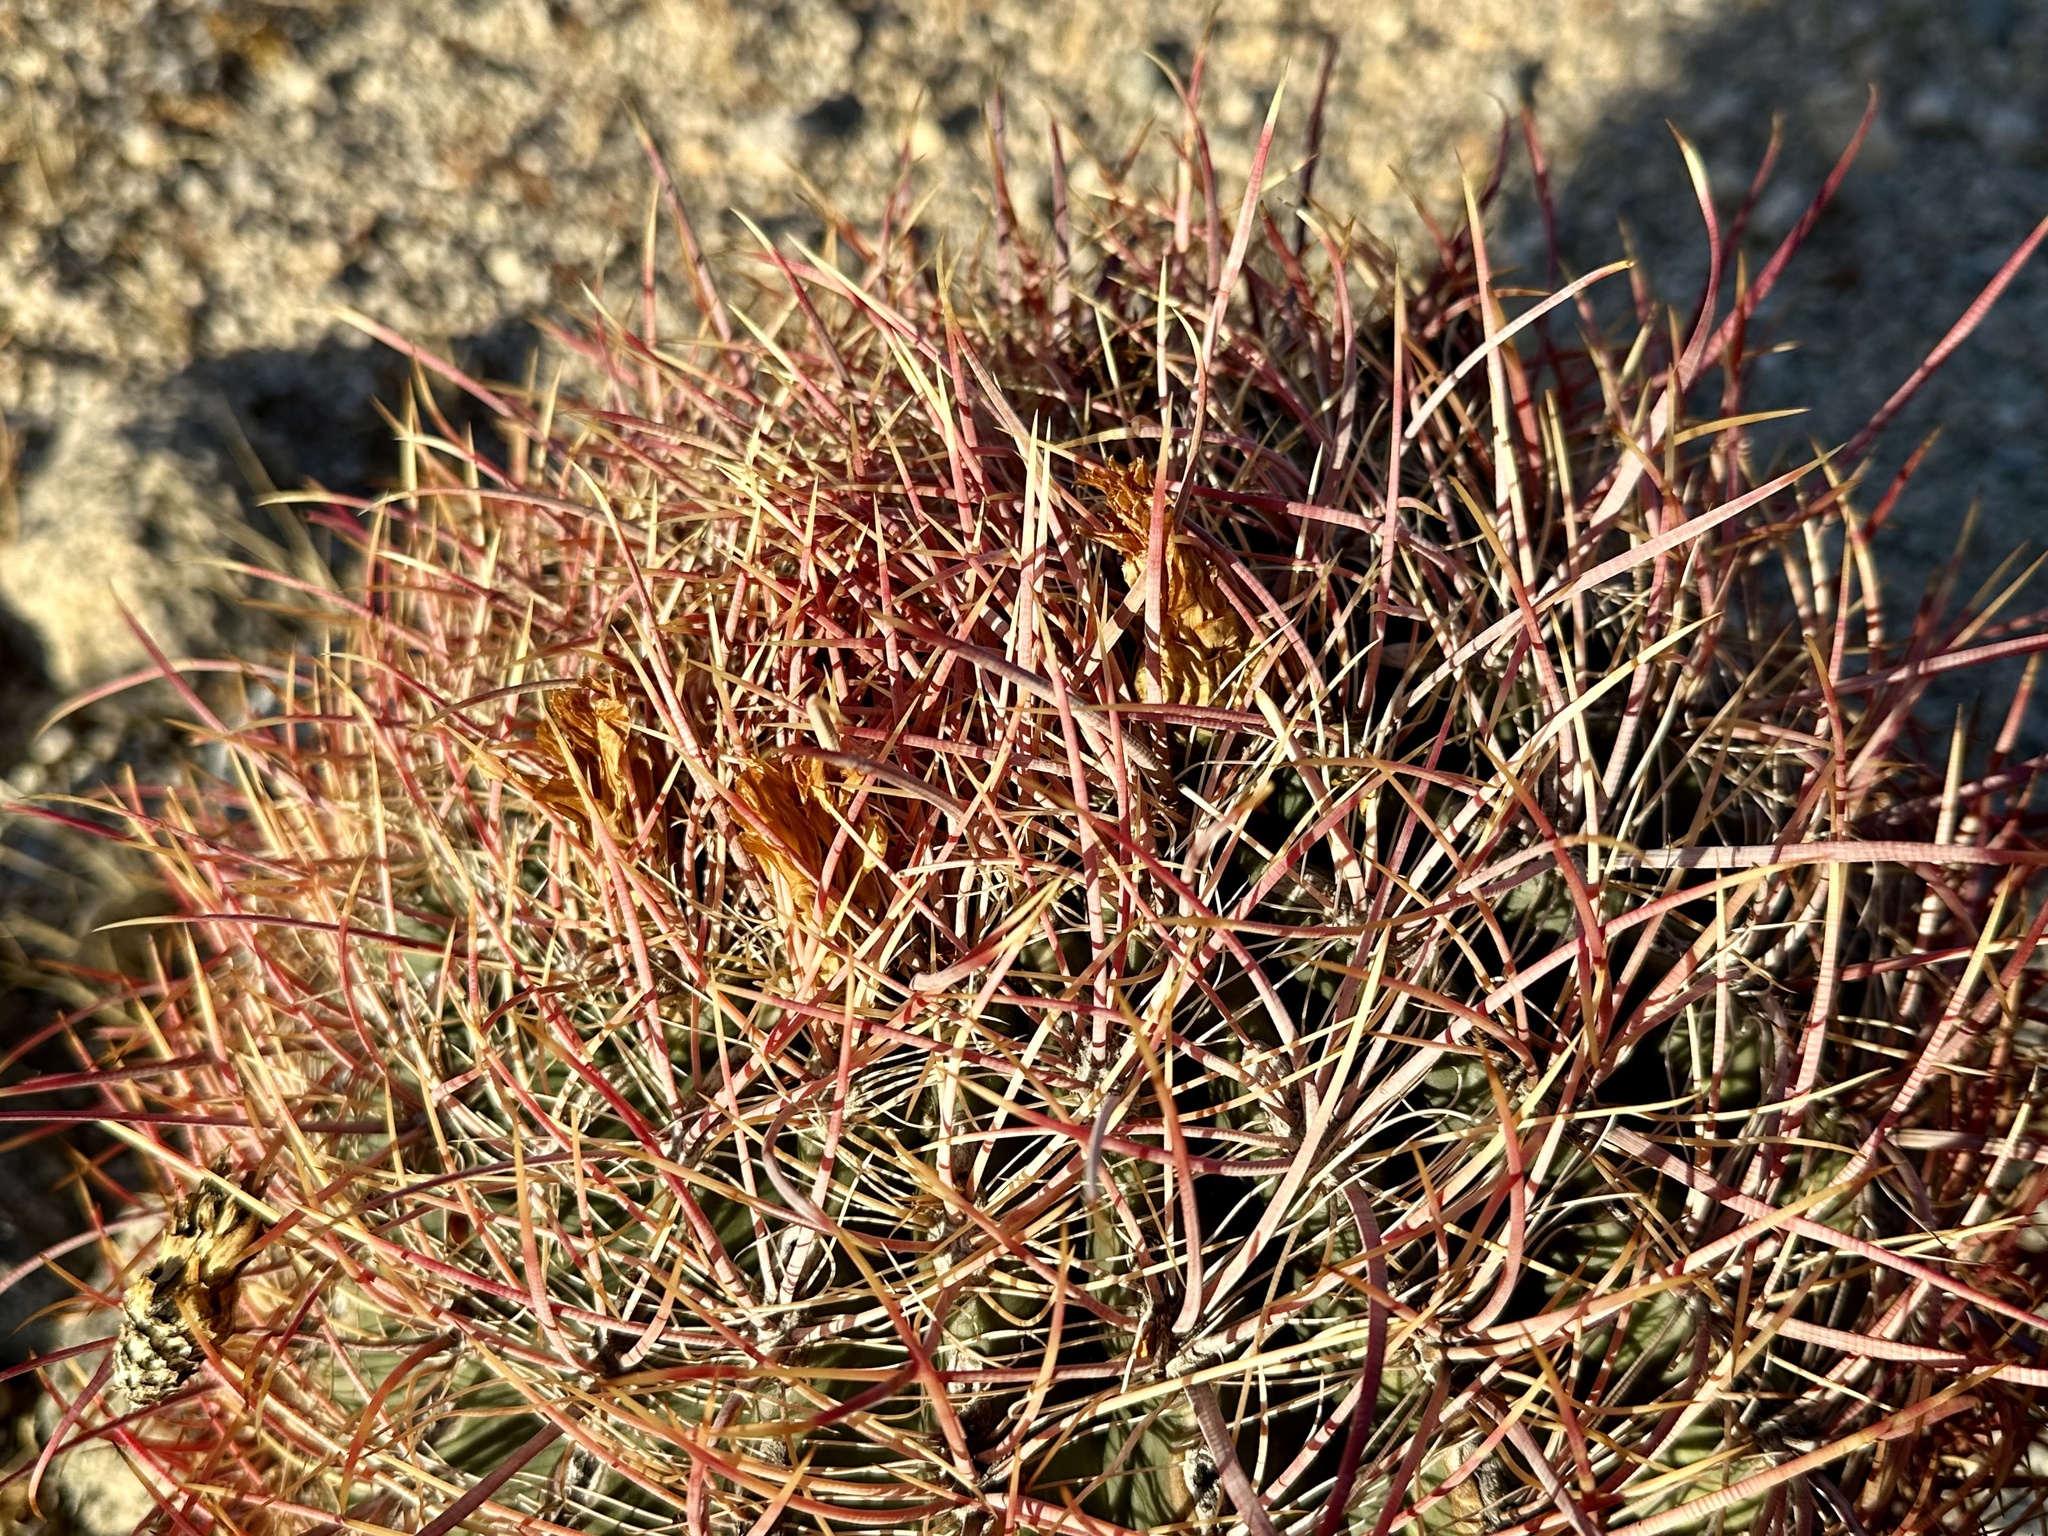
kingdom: Plantae
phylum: Tracheophyta
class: Magnoliopsida
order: Caryophyllales
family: Cactaceae
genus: Ferocactus
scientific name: Ferocactus cylindraceus
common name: California barrel cactus
